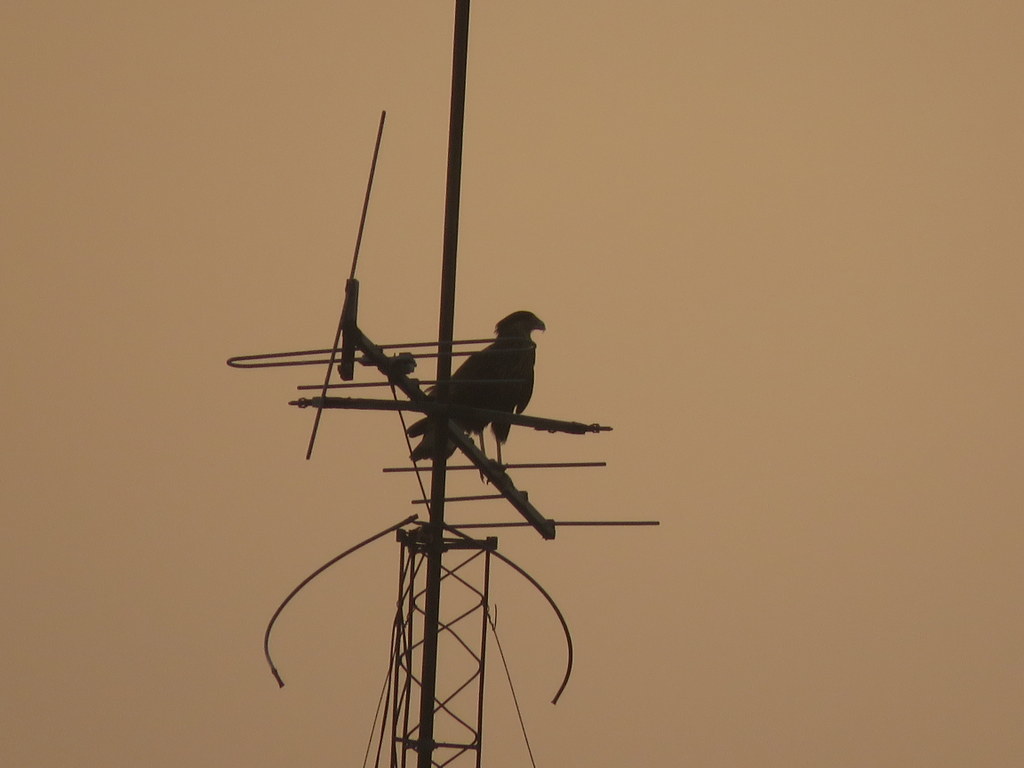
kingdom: Animalia
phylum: Chordata
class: Aves
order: Falconiformes
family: Falconidae
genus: Caracara
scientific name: Caracara plancus
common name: Southern caracara
